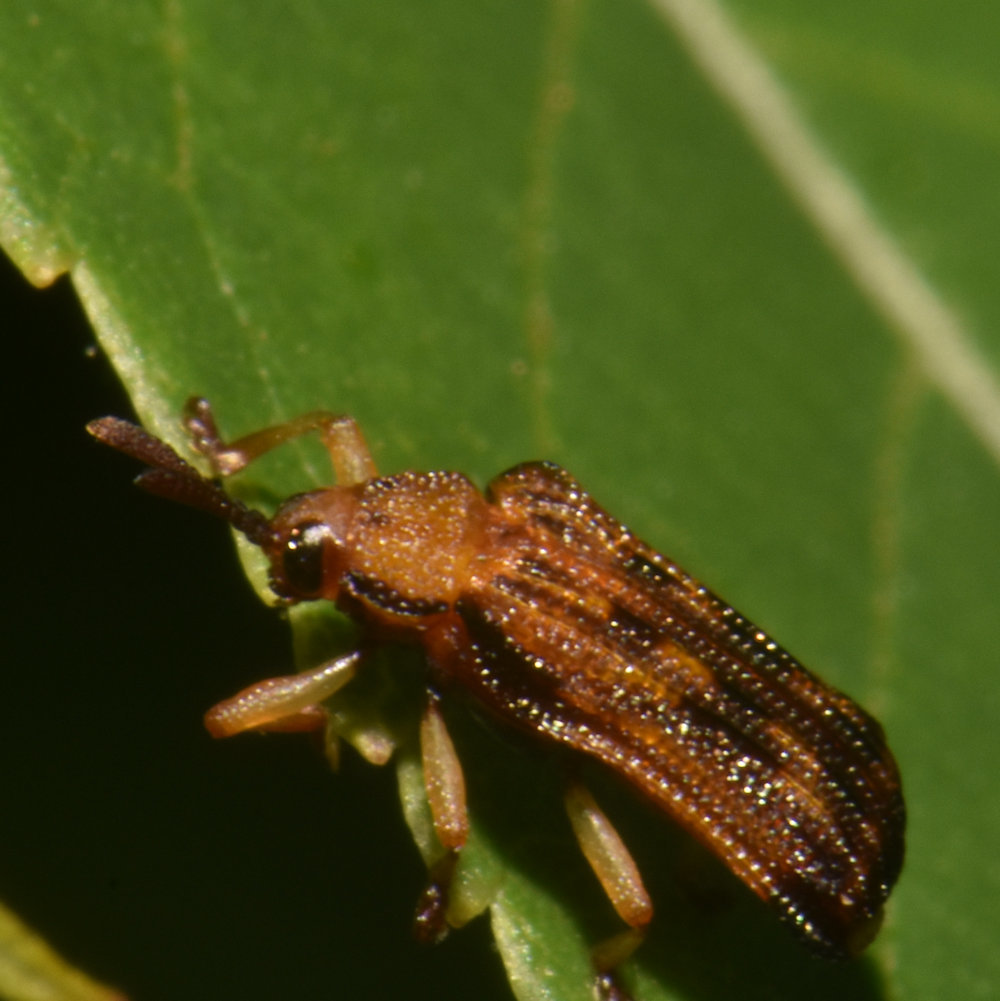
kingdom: Animalia
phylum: Arthropoda
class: Insecta
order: Coleoptera
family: Chrysomelidae
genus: Baliosus
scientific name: Baliosus nervosus
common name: Basswood leaf miner
